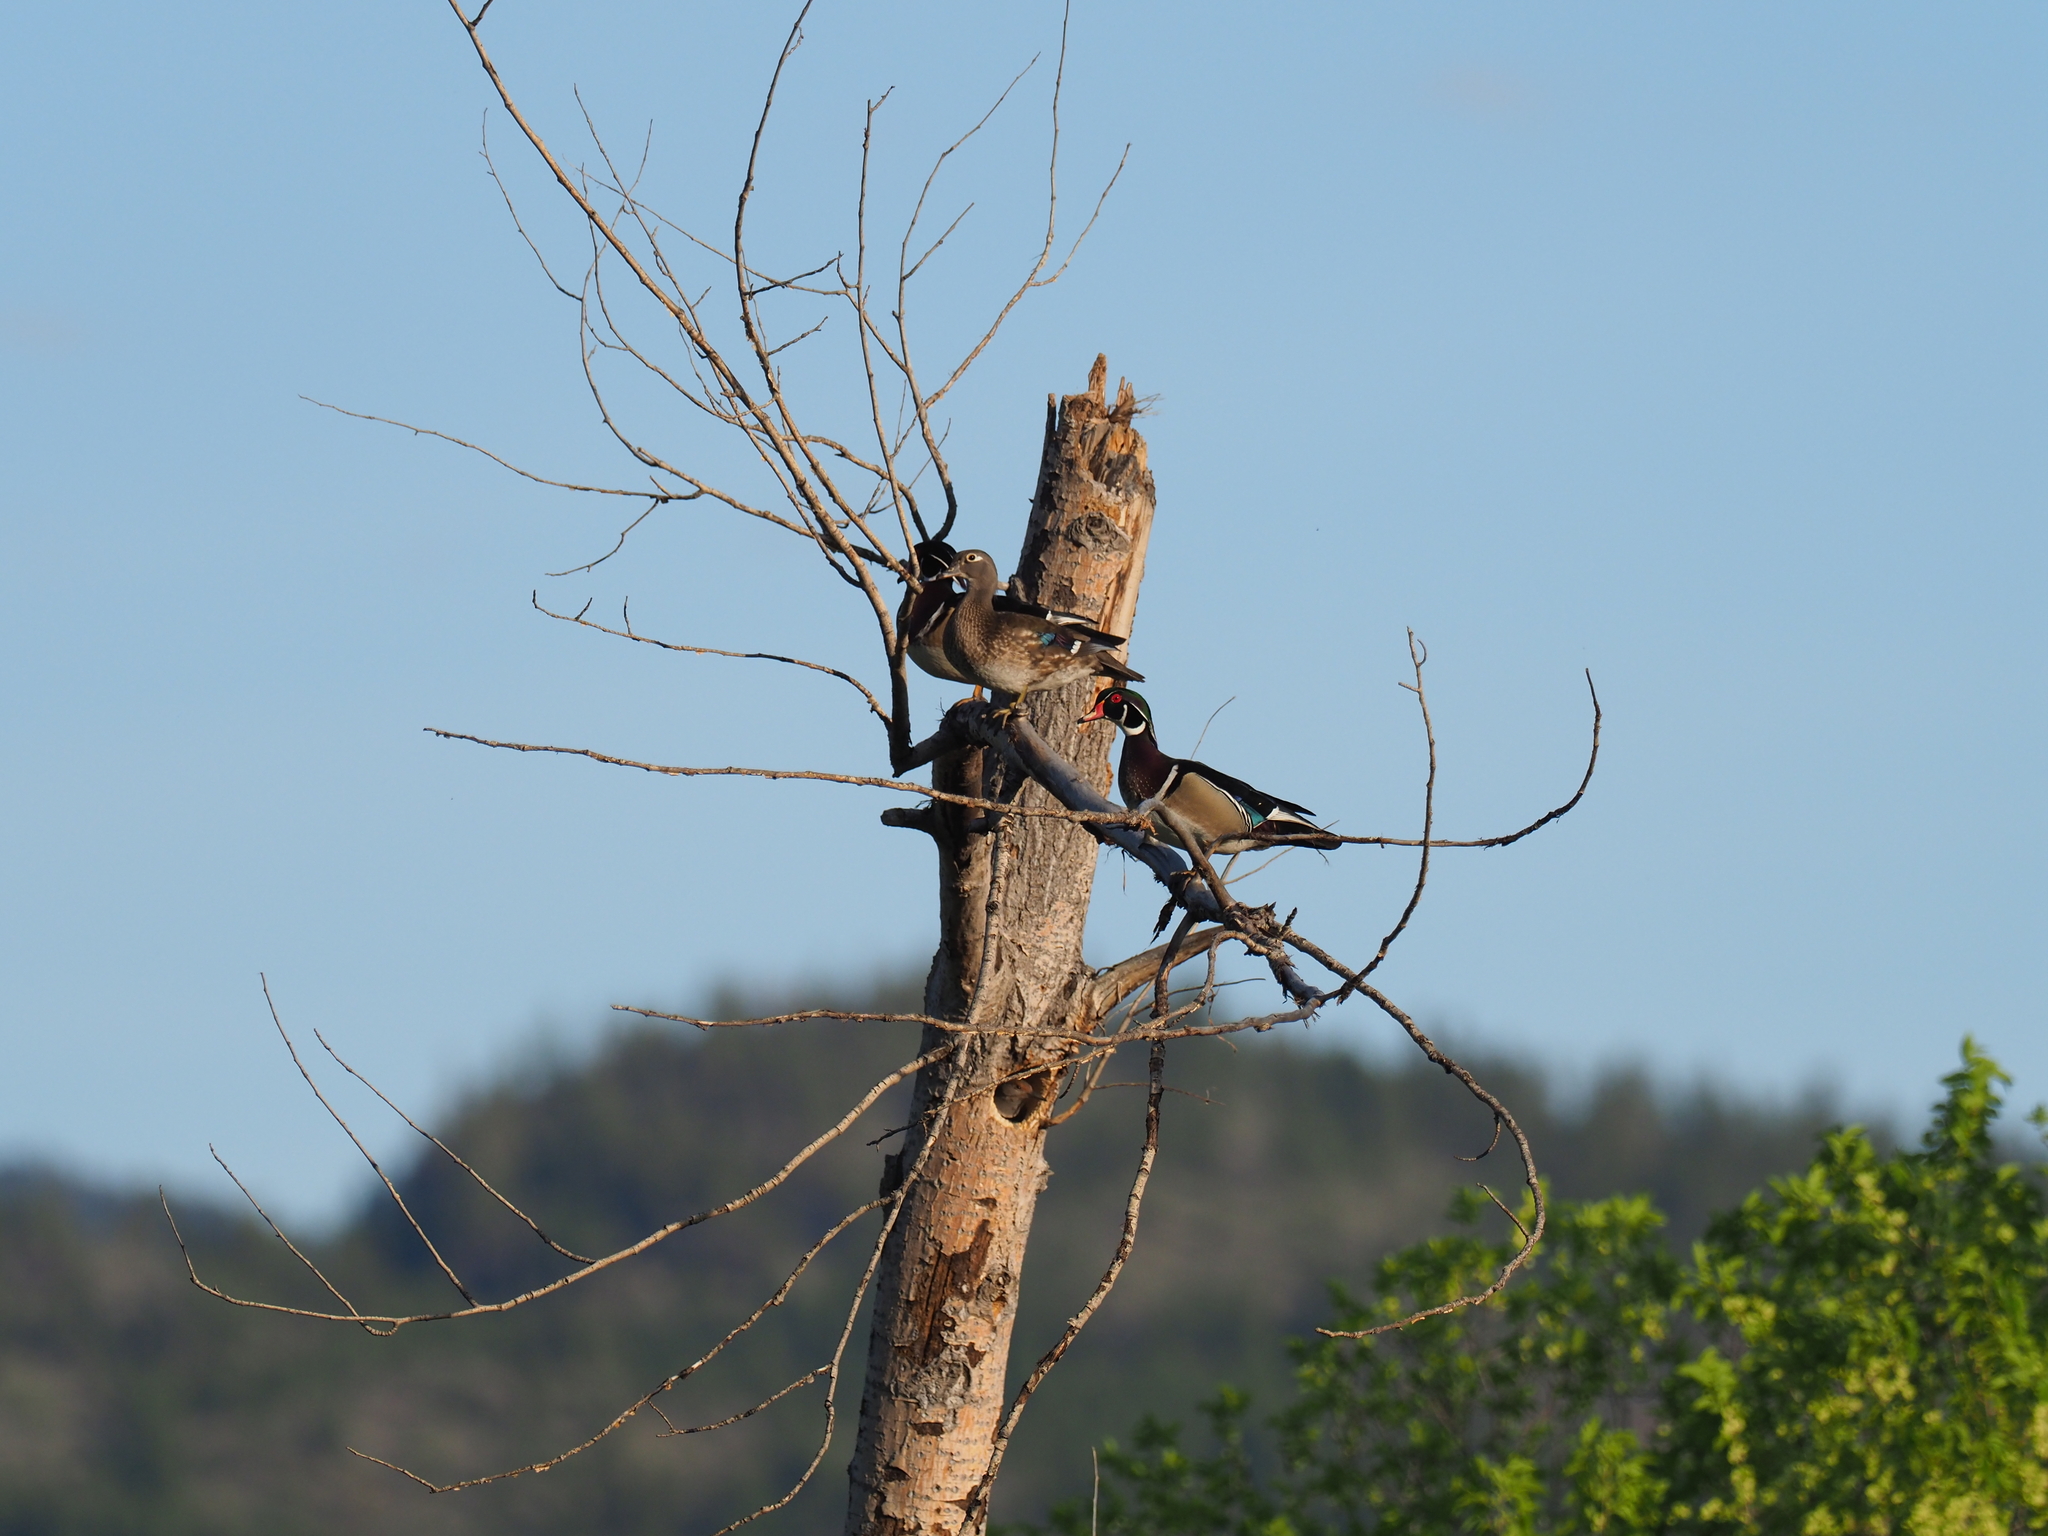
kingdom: Animalia
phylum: Chordata
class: Aves
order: Anseriformes
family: Anatidae
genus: Aix
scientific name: Aix sponsa
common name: Wood duck
